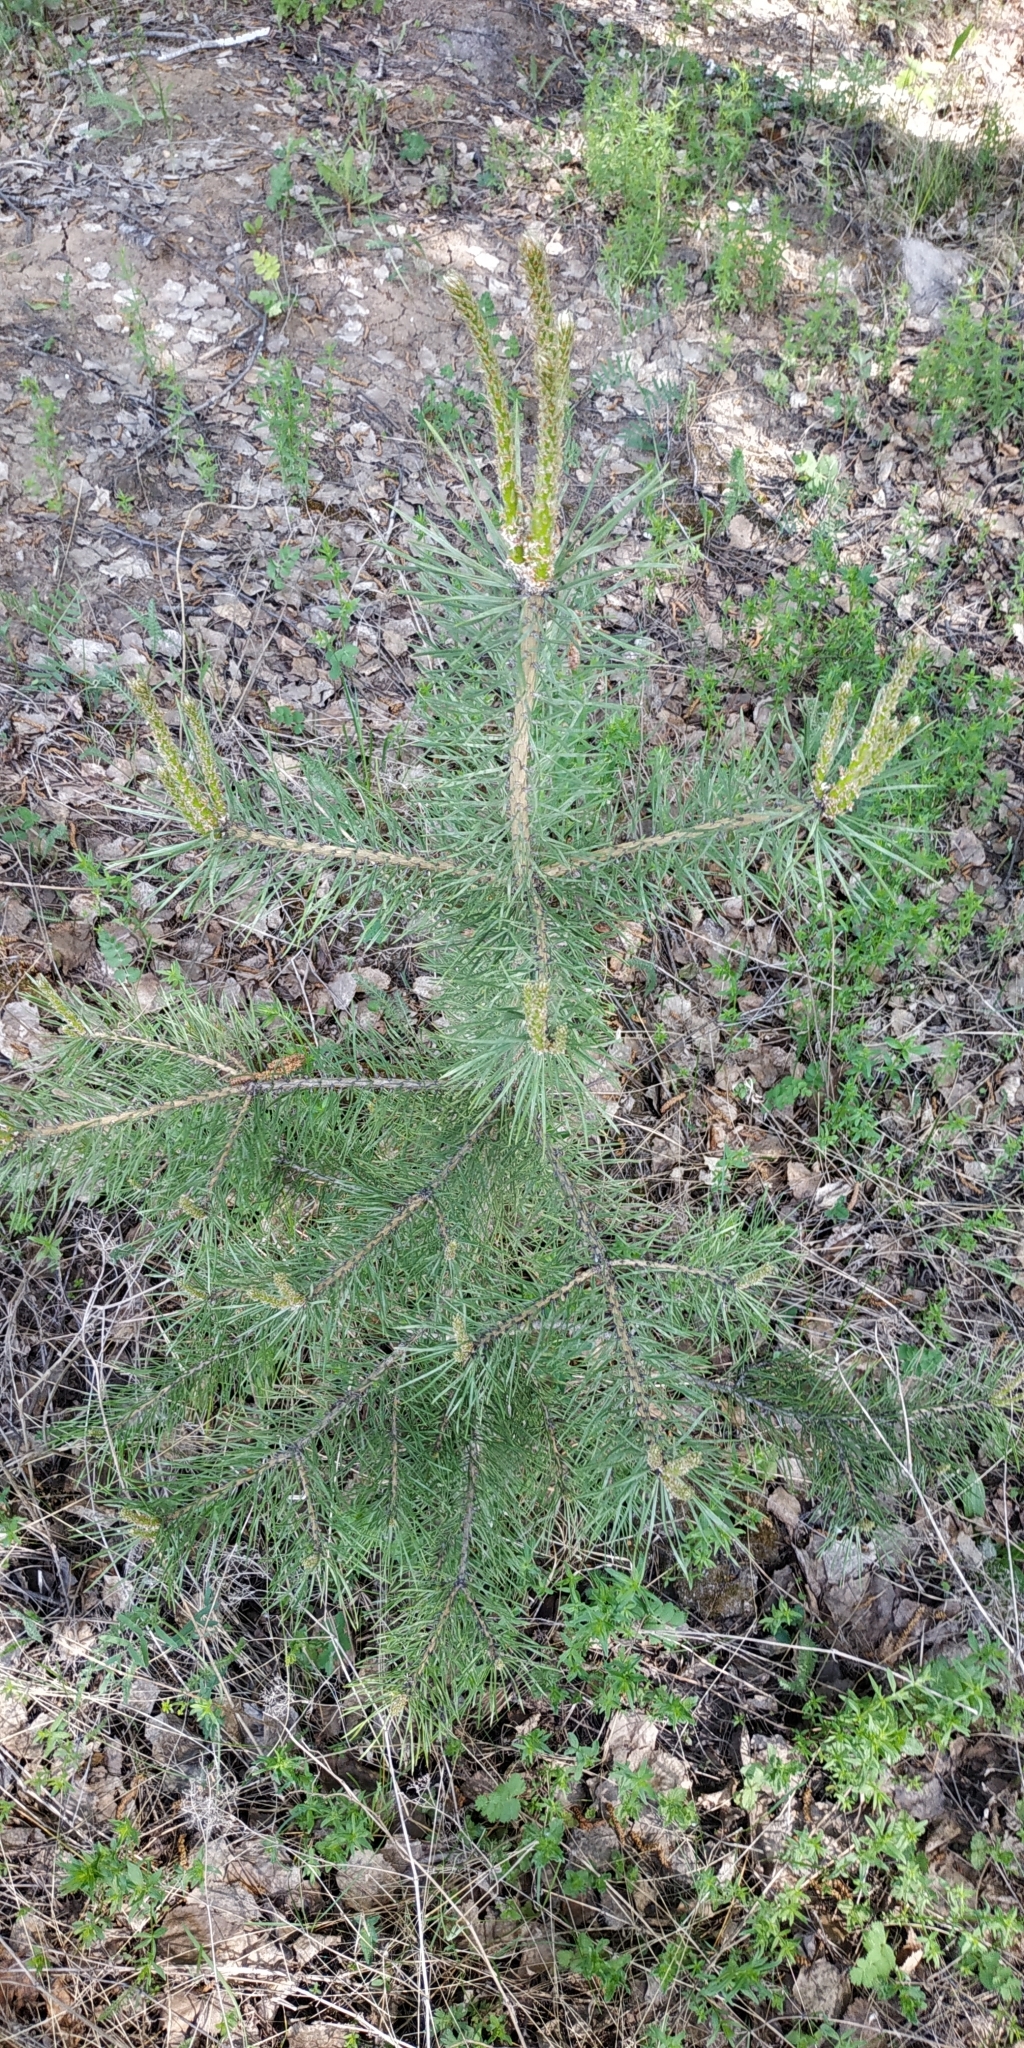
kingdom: Plantae
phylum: Tracheophyta
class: Pinopsida
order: Pinales
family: Pinaceae
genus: Pinus
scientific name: Pinus sylvestris
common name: Scots pine
